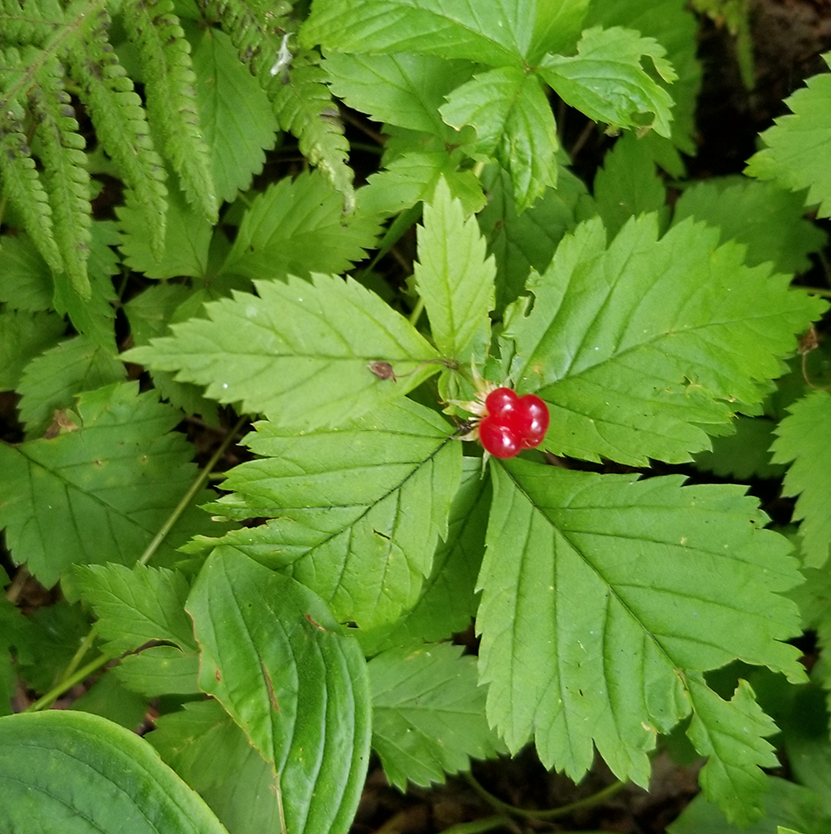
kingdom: Plantae
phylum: Tracheophyta
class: Magnoliopsida
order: Rosales
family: Rosaceae
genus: Rubus
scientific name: Rubus pubescens
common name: Dwarf raspberry
